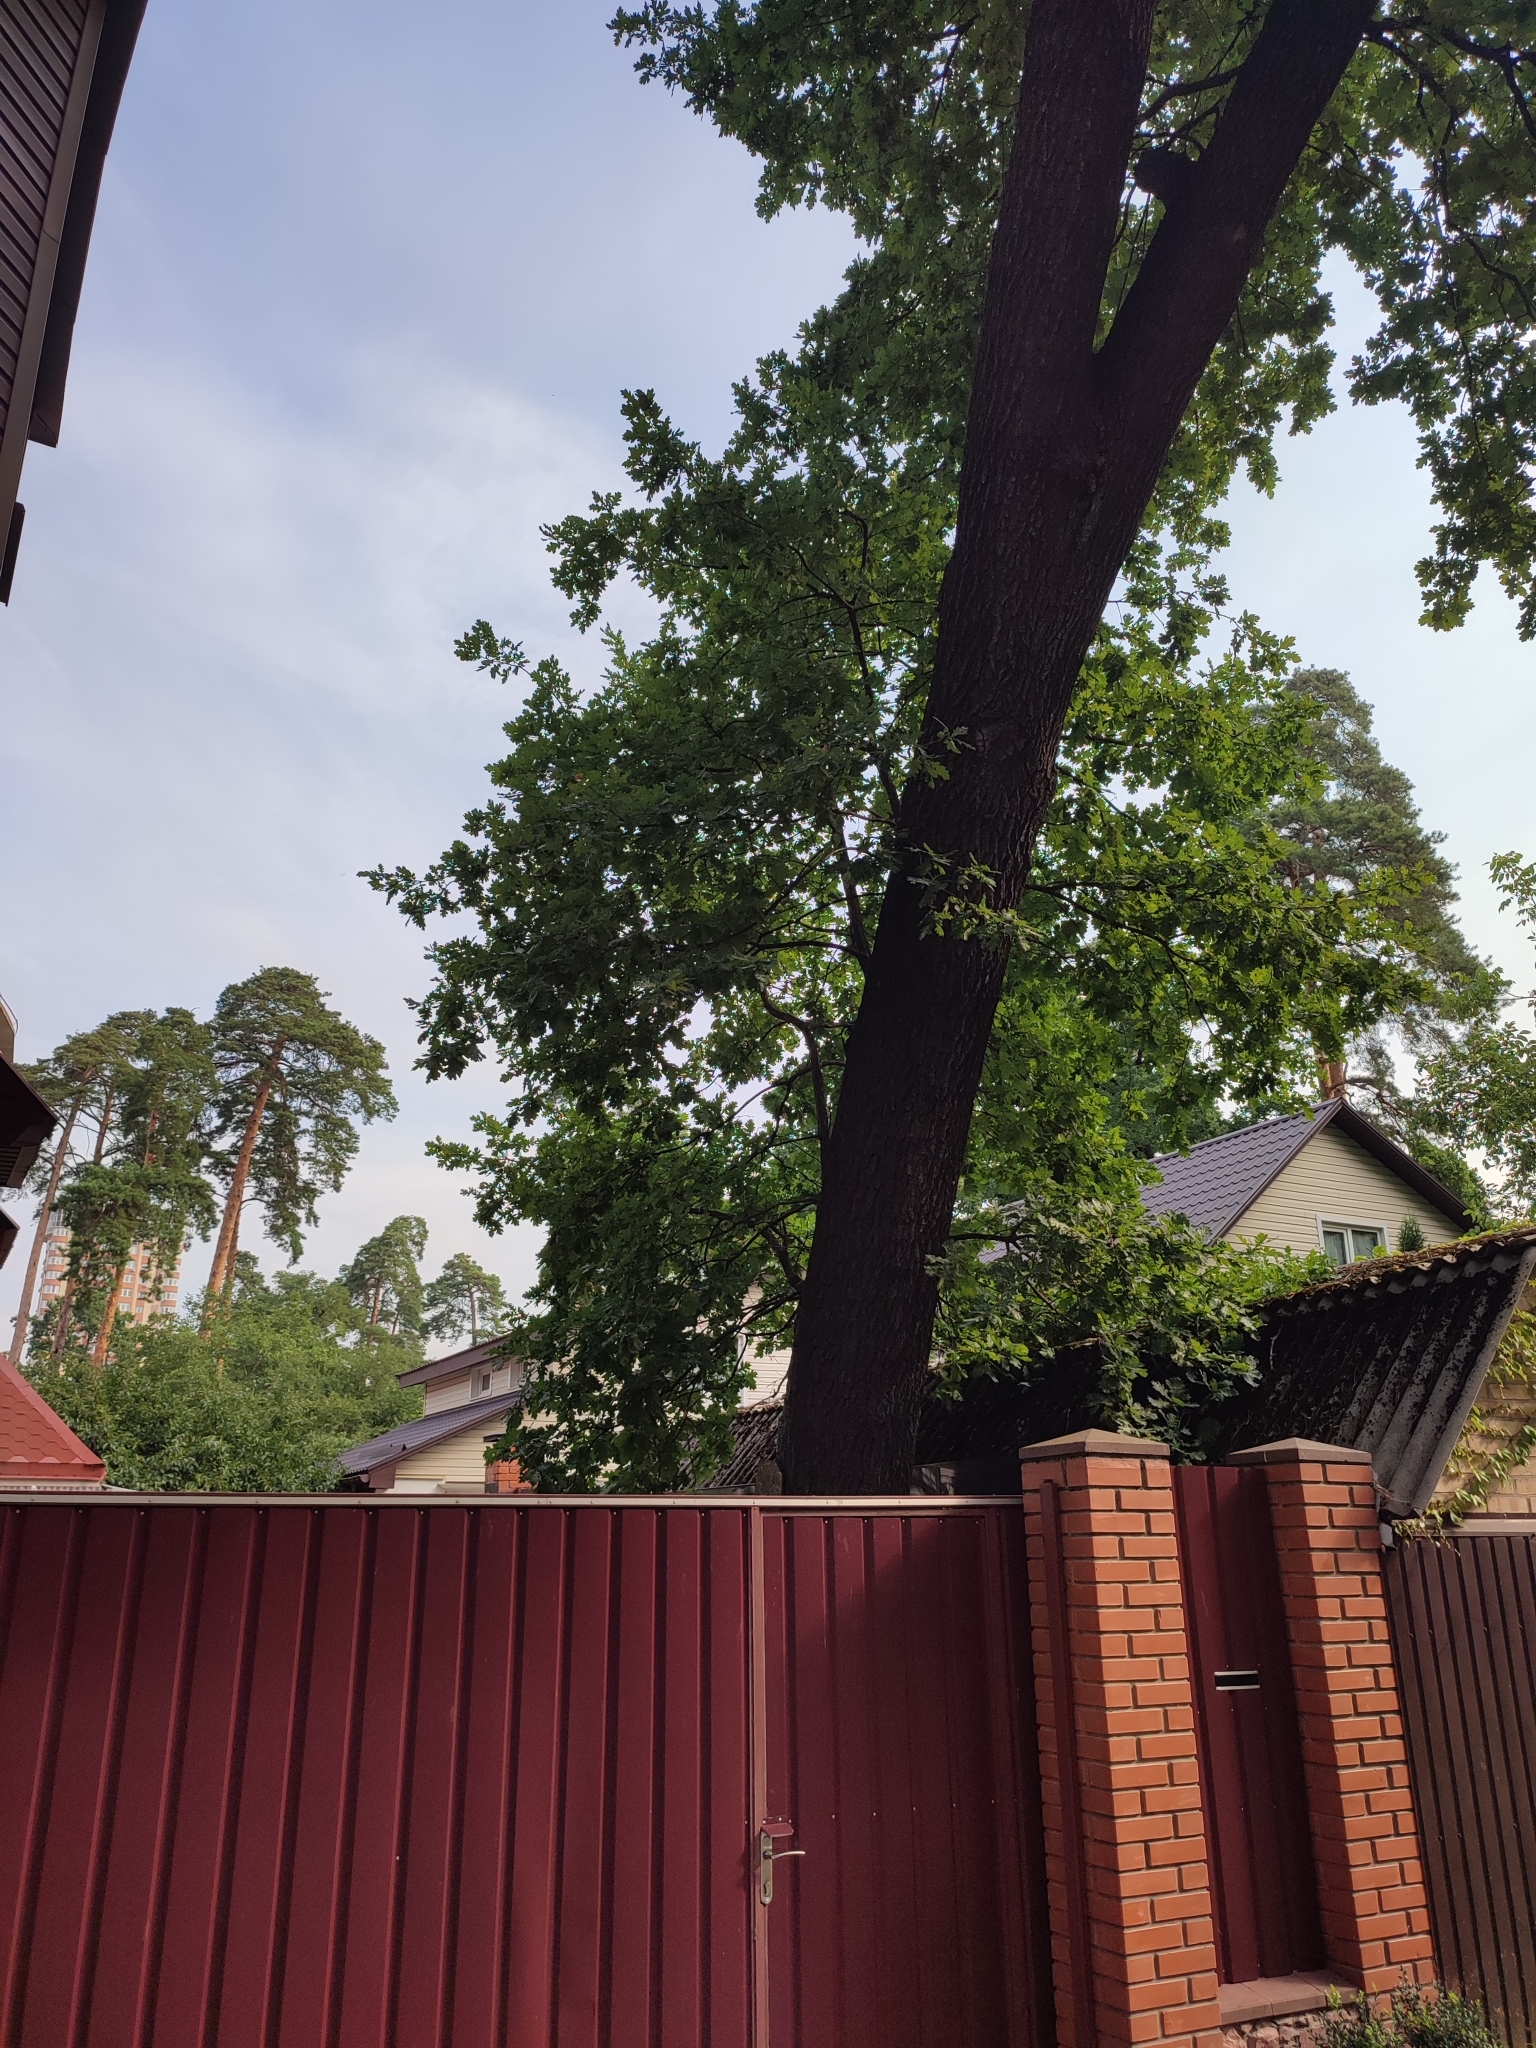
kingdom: Plantae
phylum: Tracheophyta
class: Magnoliopsida
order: Fagales
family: Fagaceae
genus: Quercus
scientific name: Quercus robur
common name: Pedunculate oak
